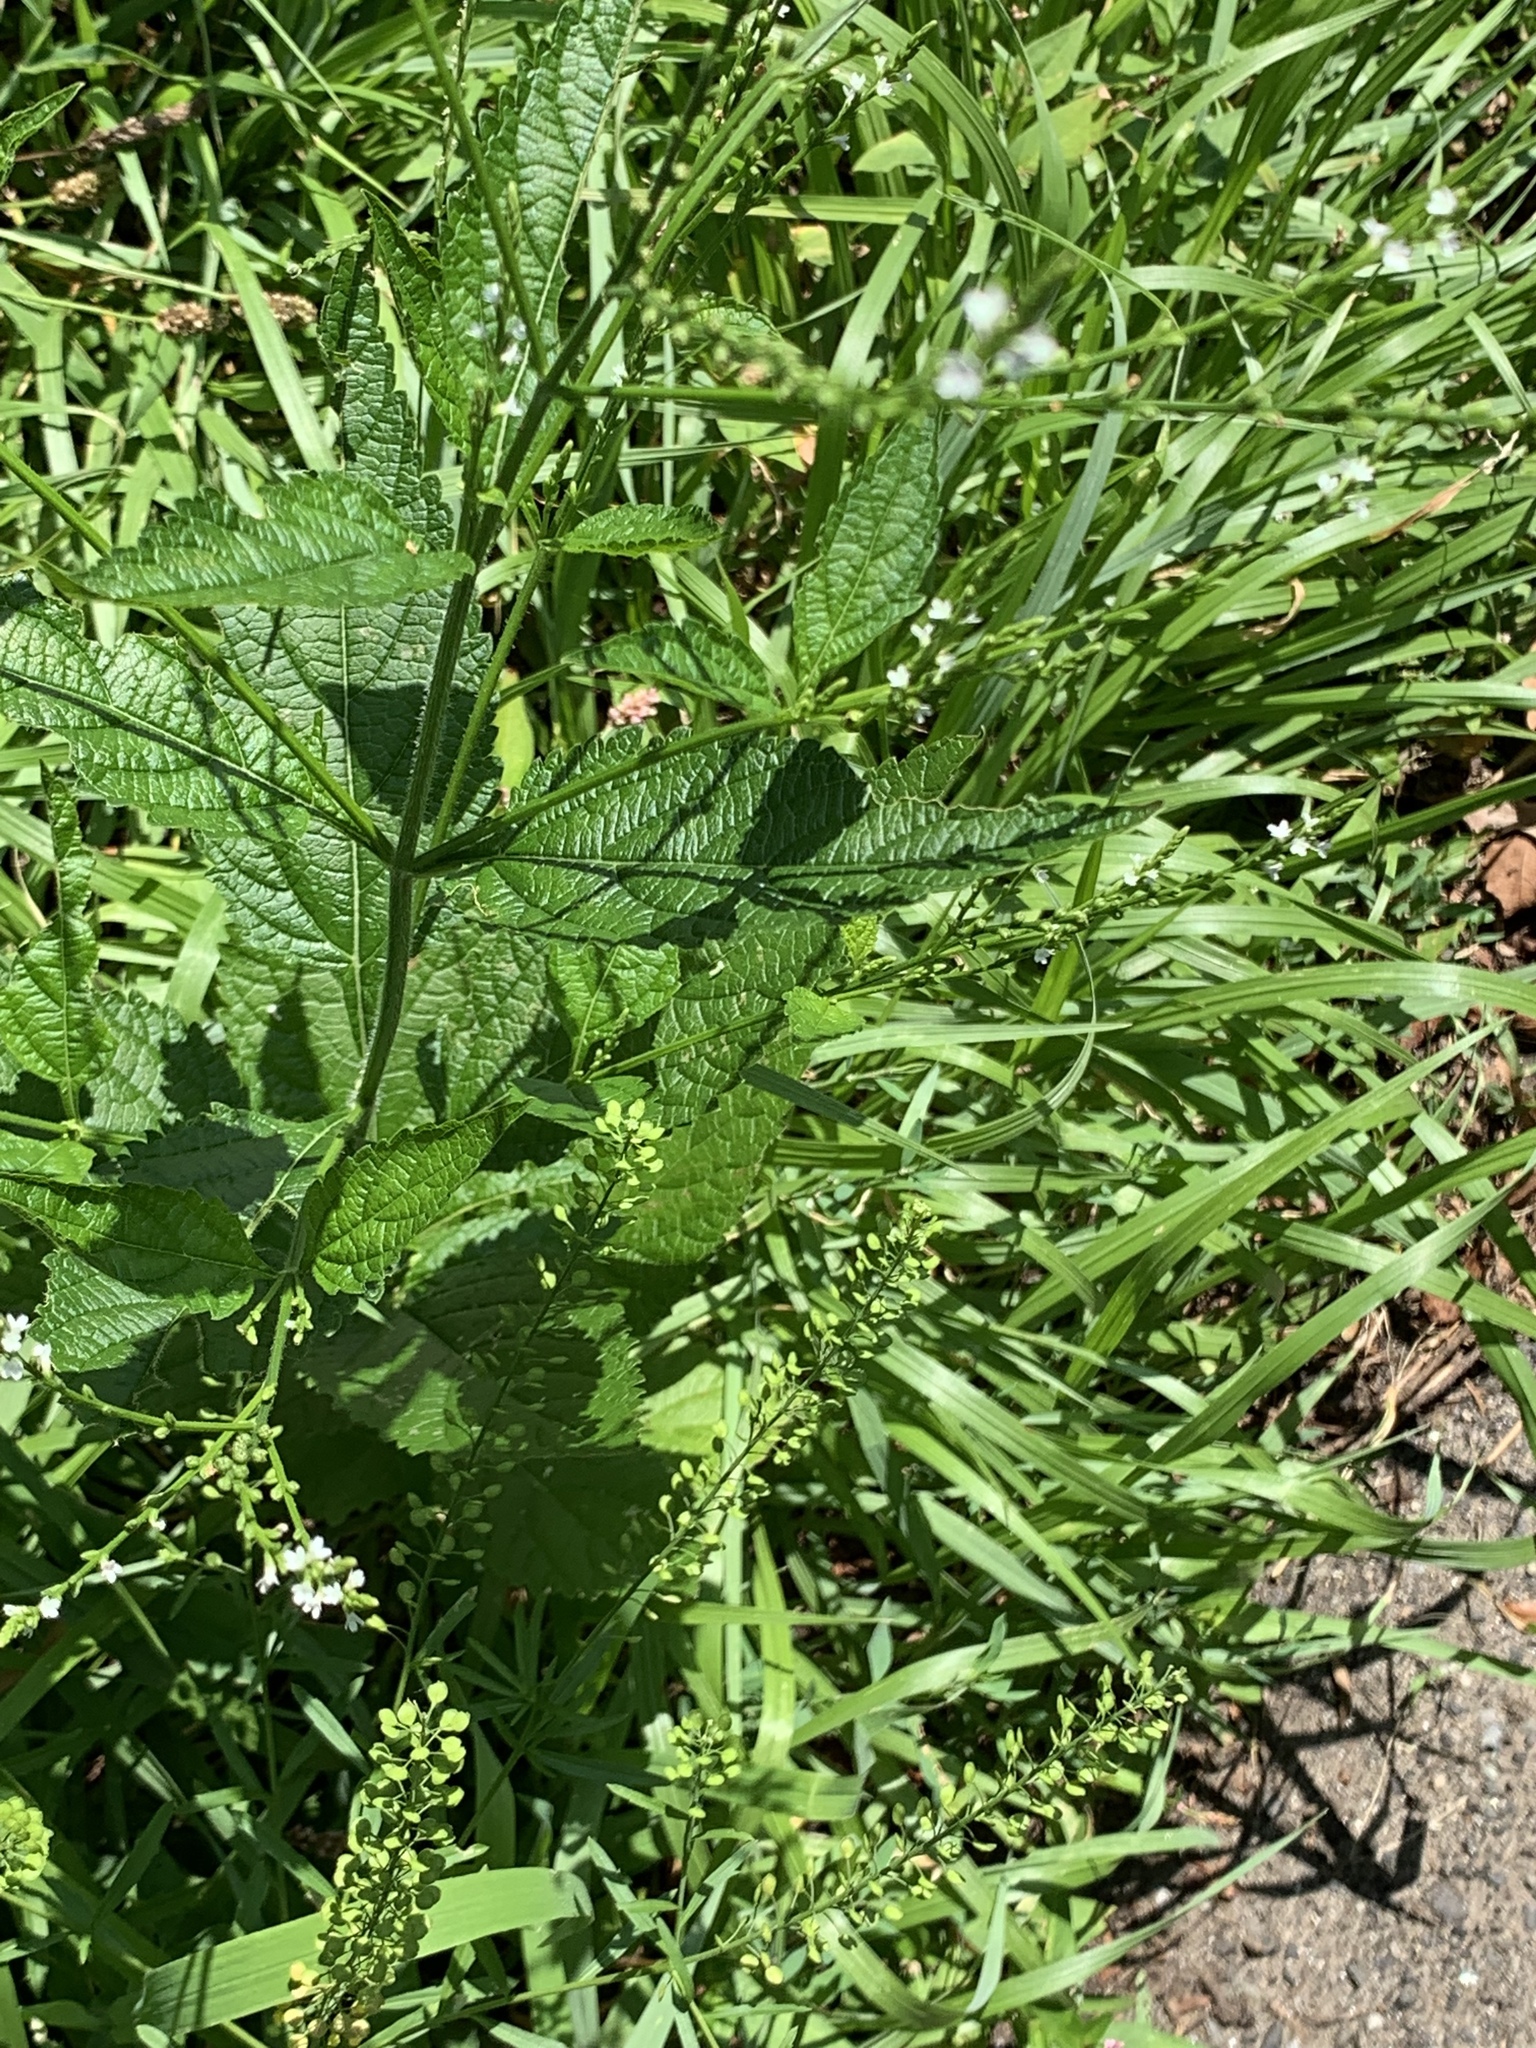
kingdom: Plantae
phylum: Tracheophyta
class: Magnoliopsida
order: Lamiales
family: Verbenaceae
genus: Verbena
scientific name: Verbena urticifolia
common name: Nettle-leaved vervain
